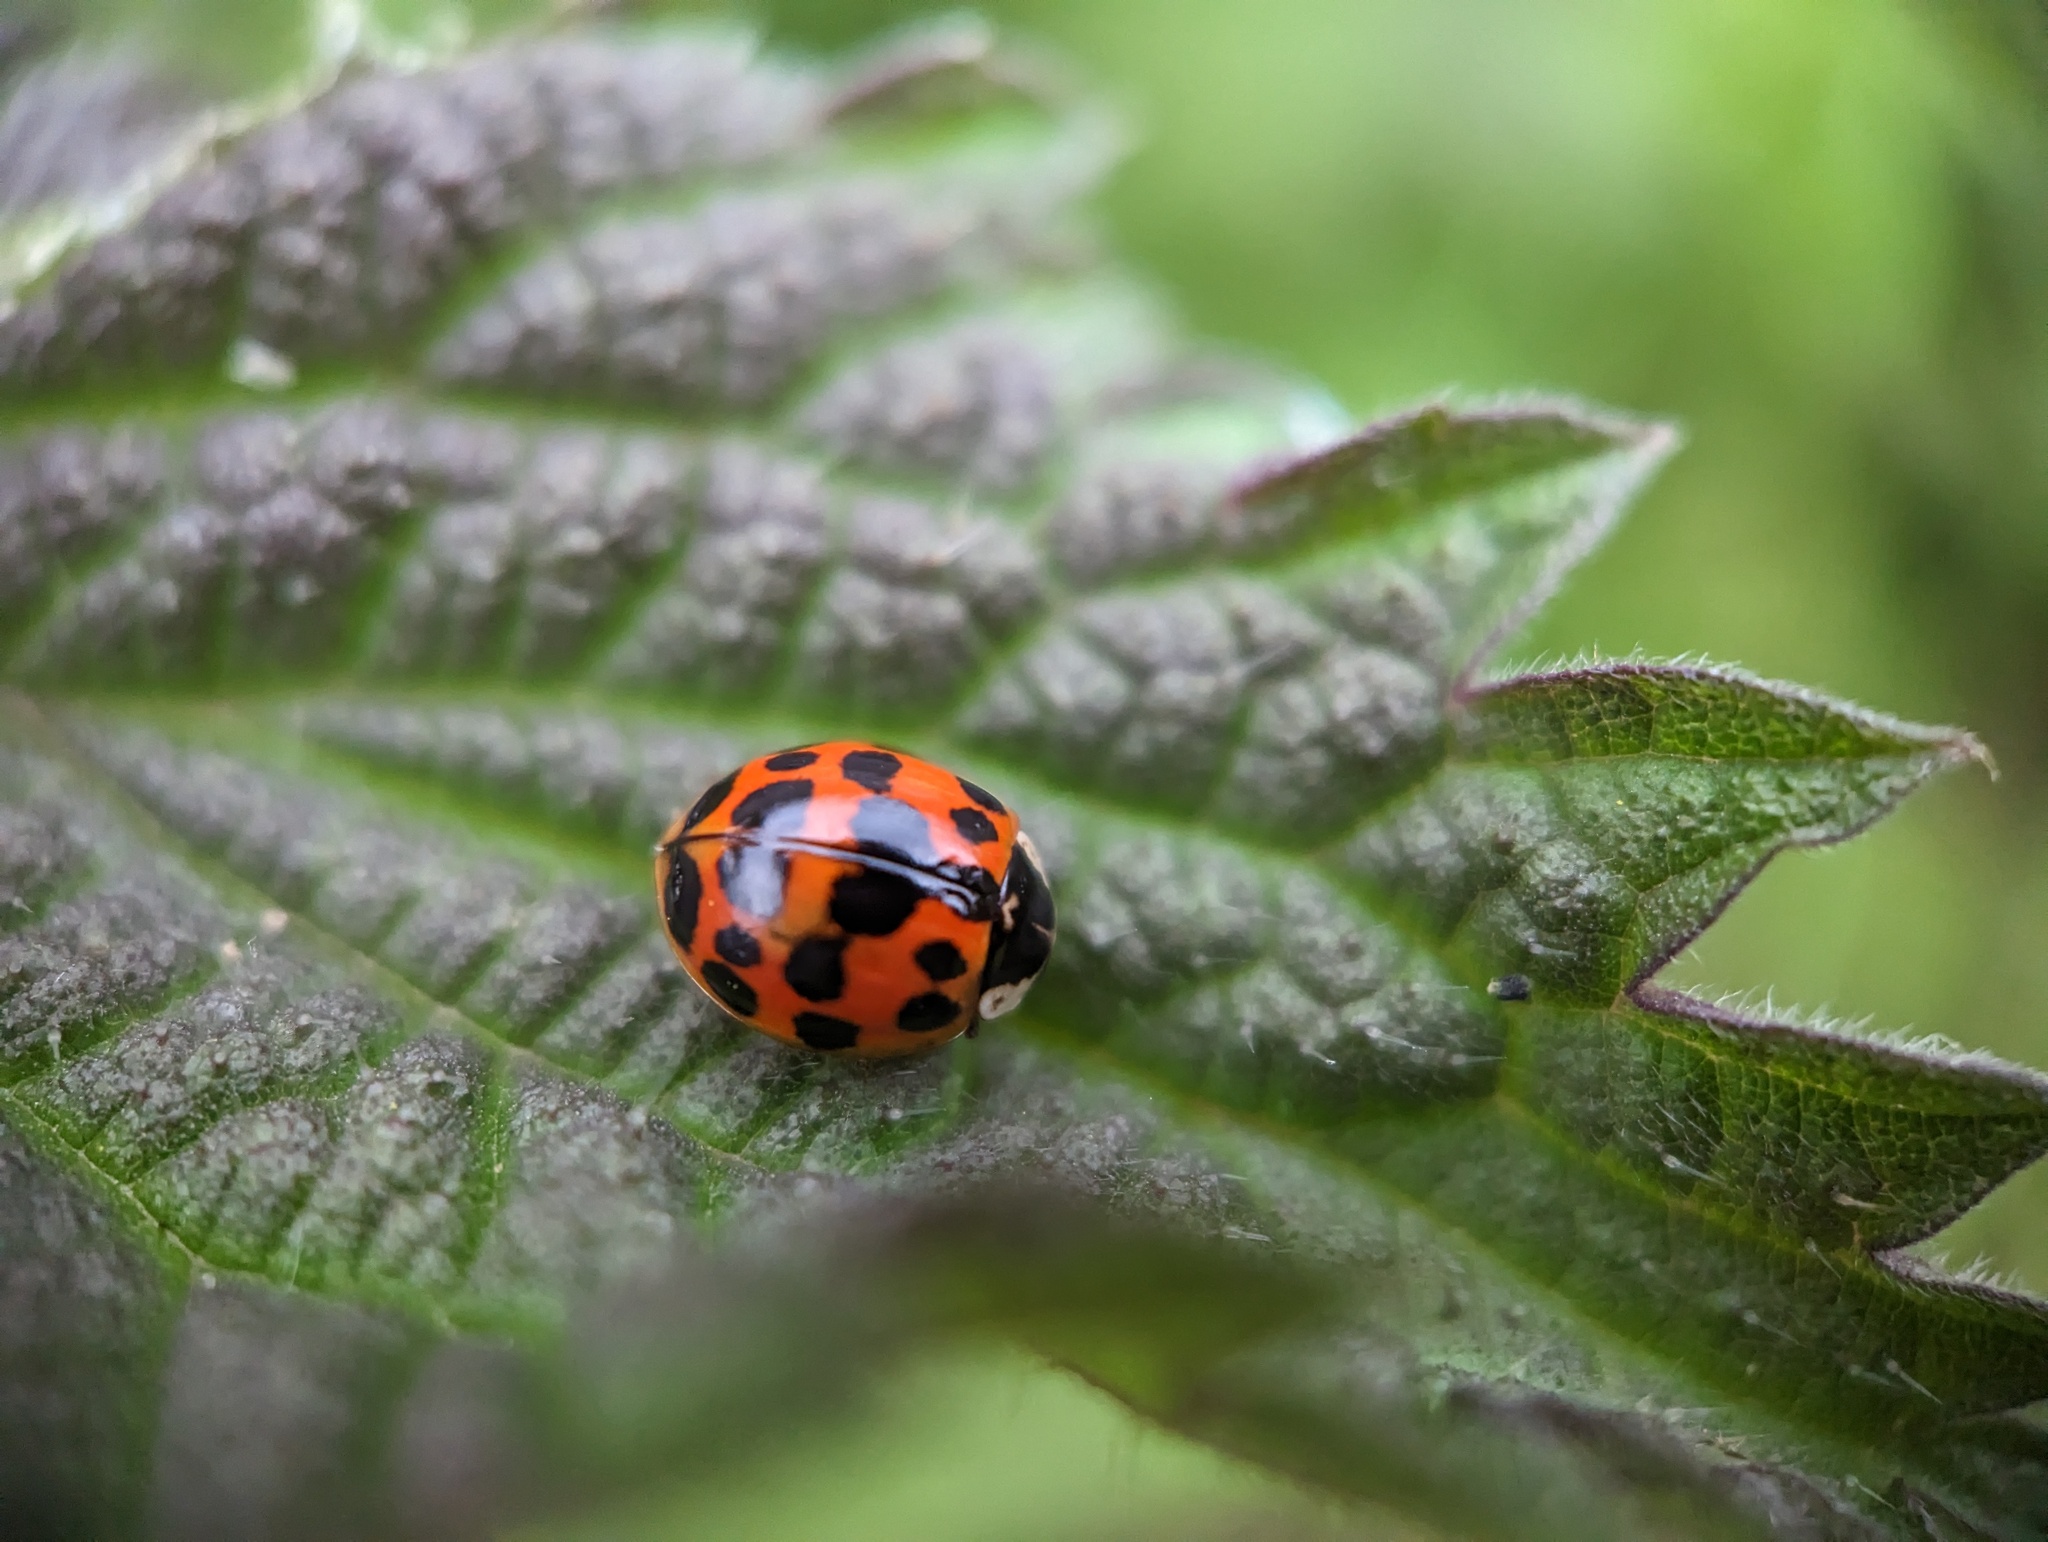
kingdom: Animalia
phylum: Arthropoda
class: Insecta
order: Coleoptera
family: Coccinellidae
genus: Harmonia
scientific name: Harmonia axyridis
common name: Harlequin ladybird
